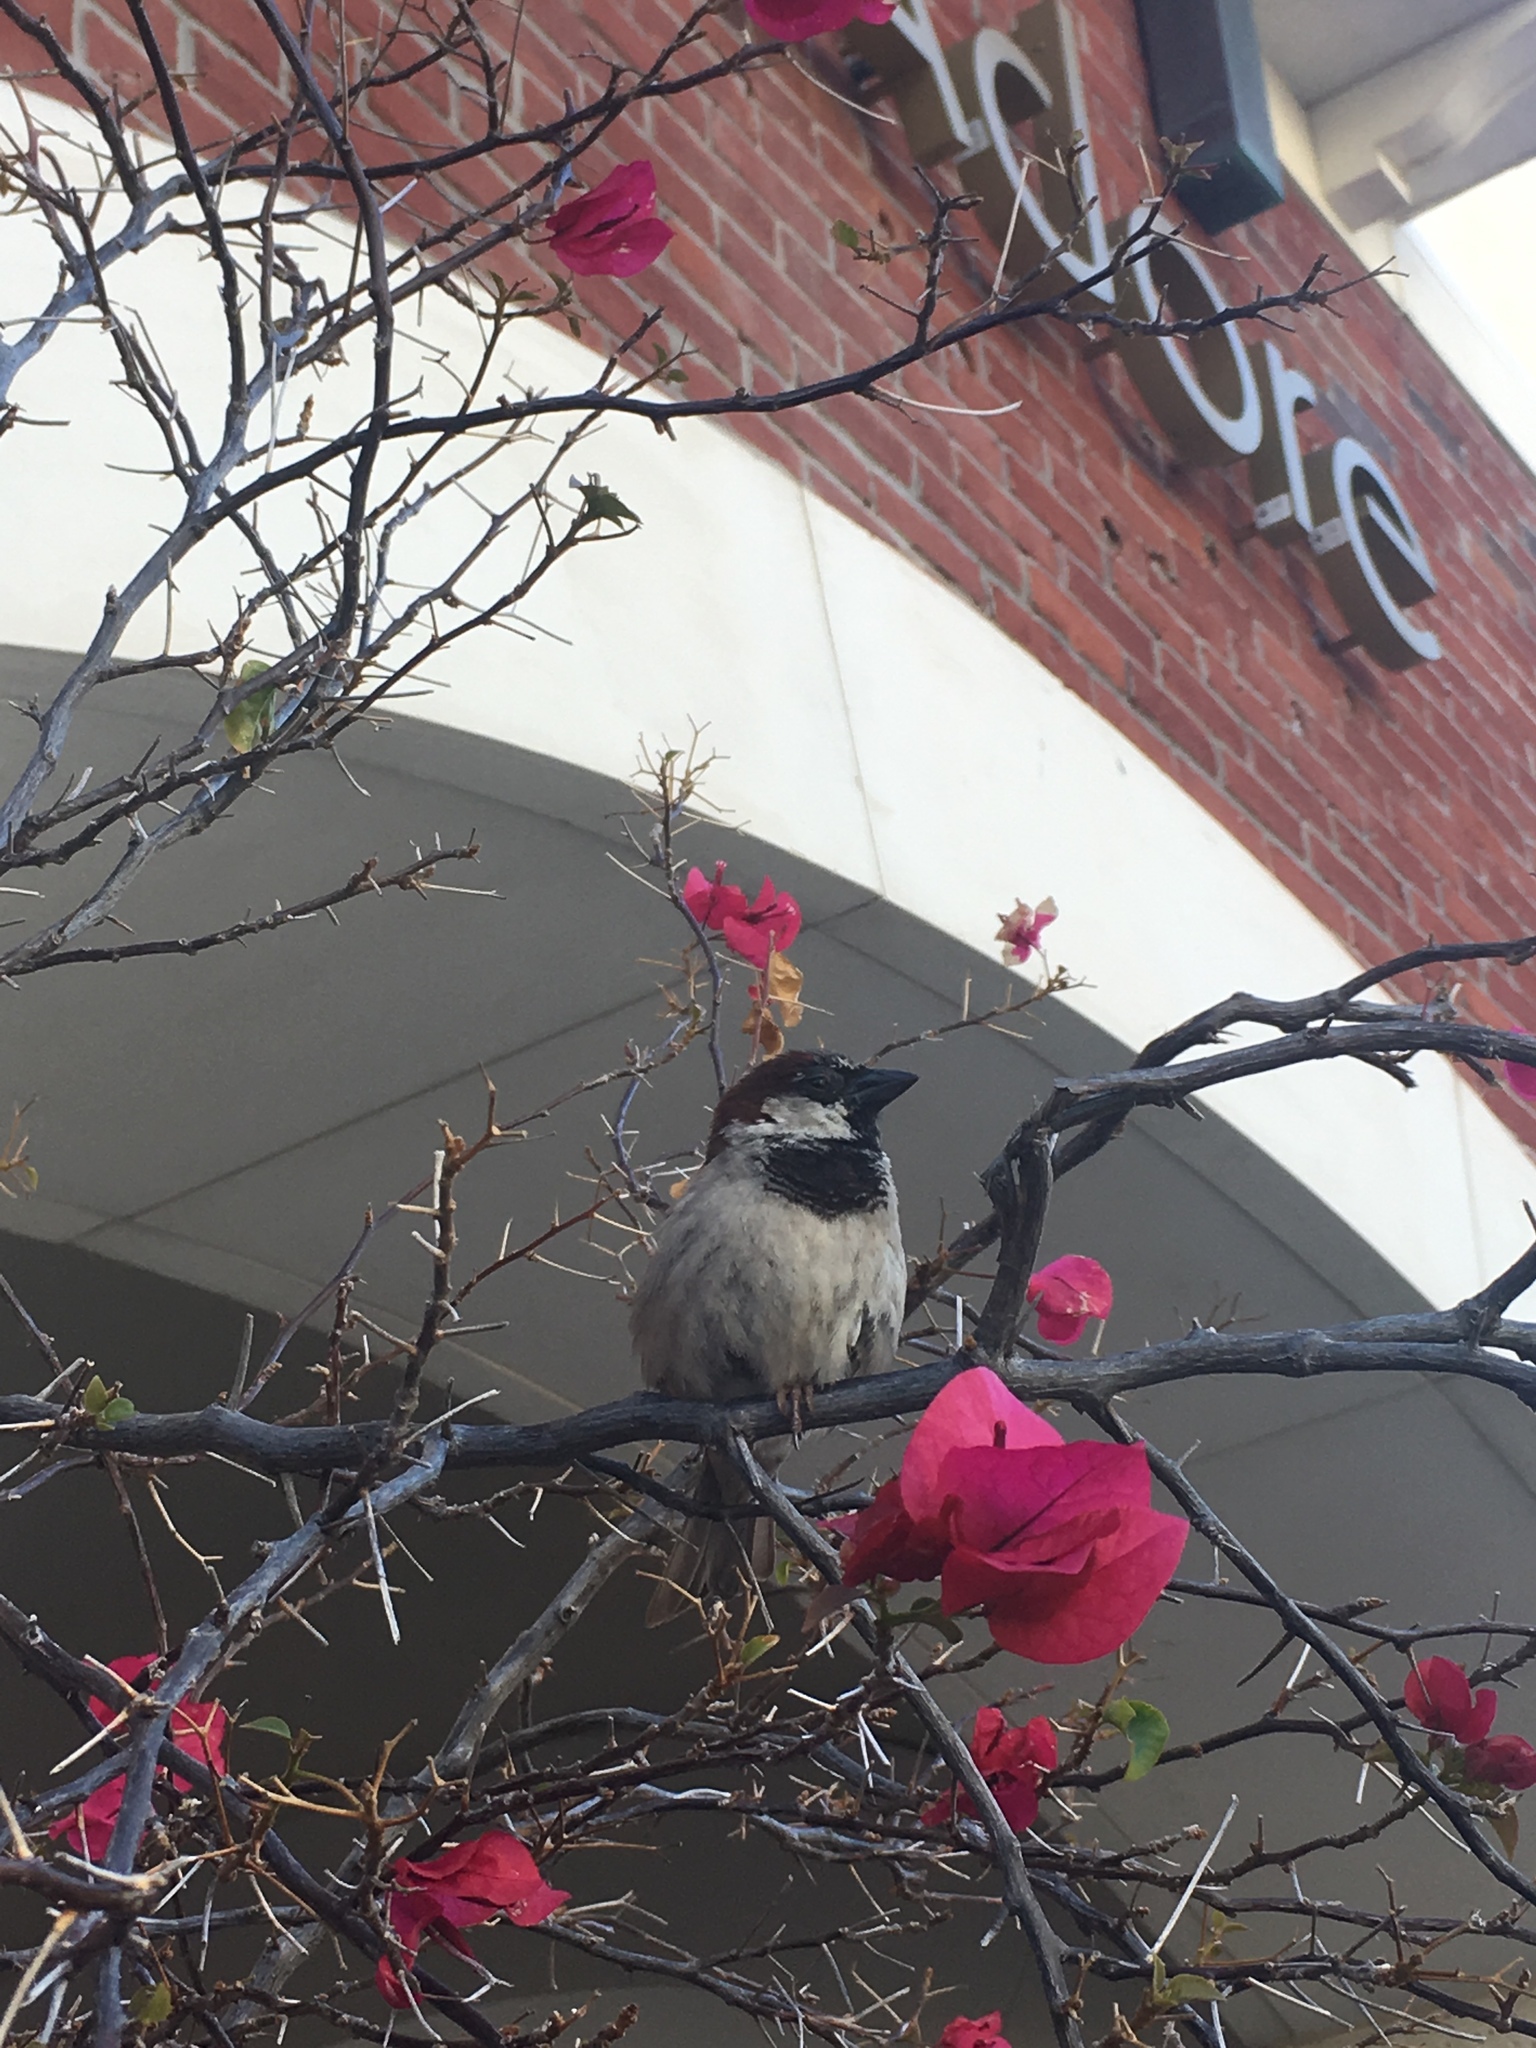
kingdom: Animalia
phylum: Chordata
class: Aves
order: Passeriformes
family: Passeridae
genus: Passer
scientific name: Passer domesticus
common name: House sparrow
